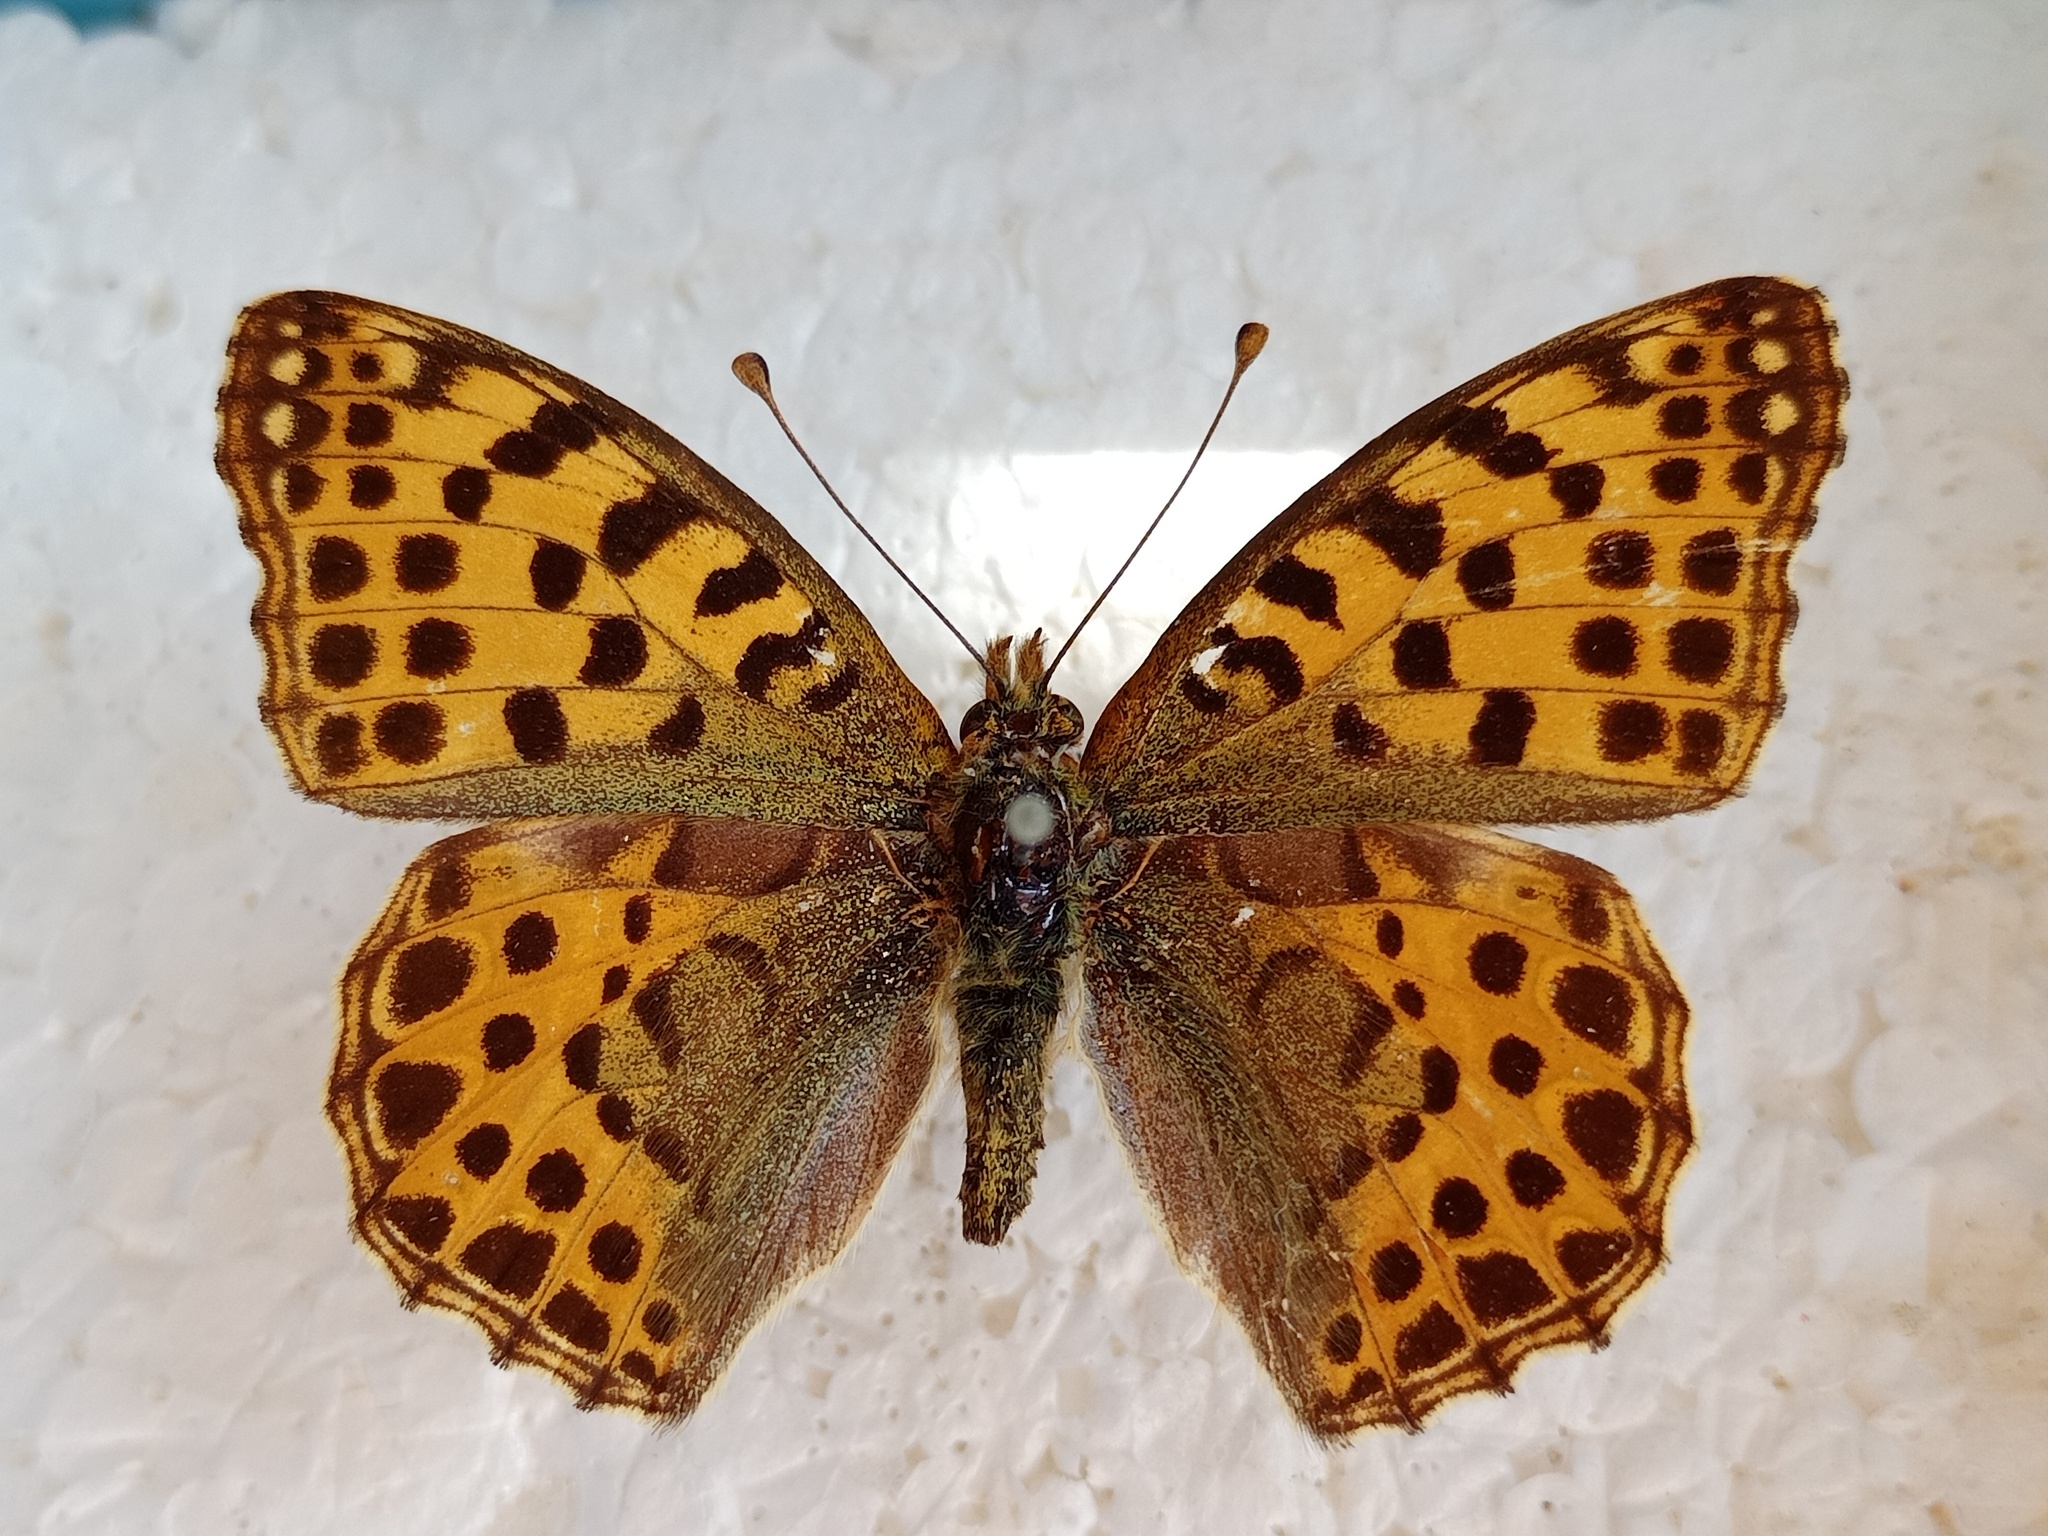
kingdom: Animalia
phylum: Arthropoda
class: Insecta
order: Lepidoptera
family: Nymphalidae
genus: Issoria
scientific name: Issoria lathonia
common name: Queen of spain fritillary
